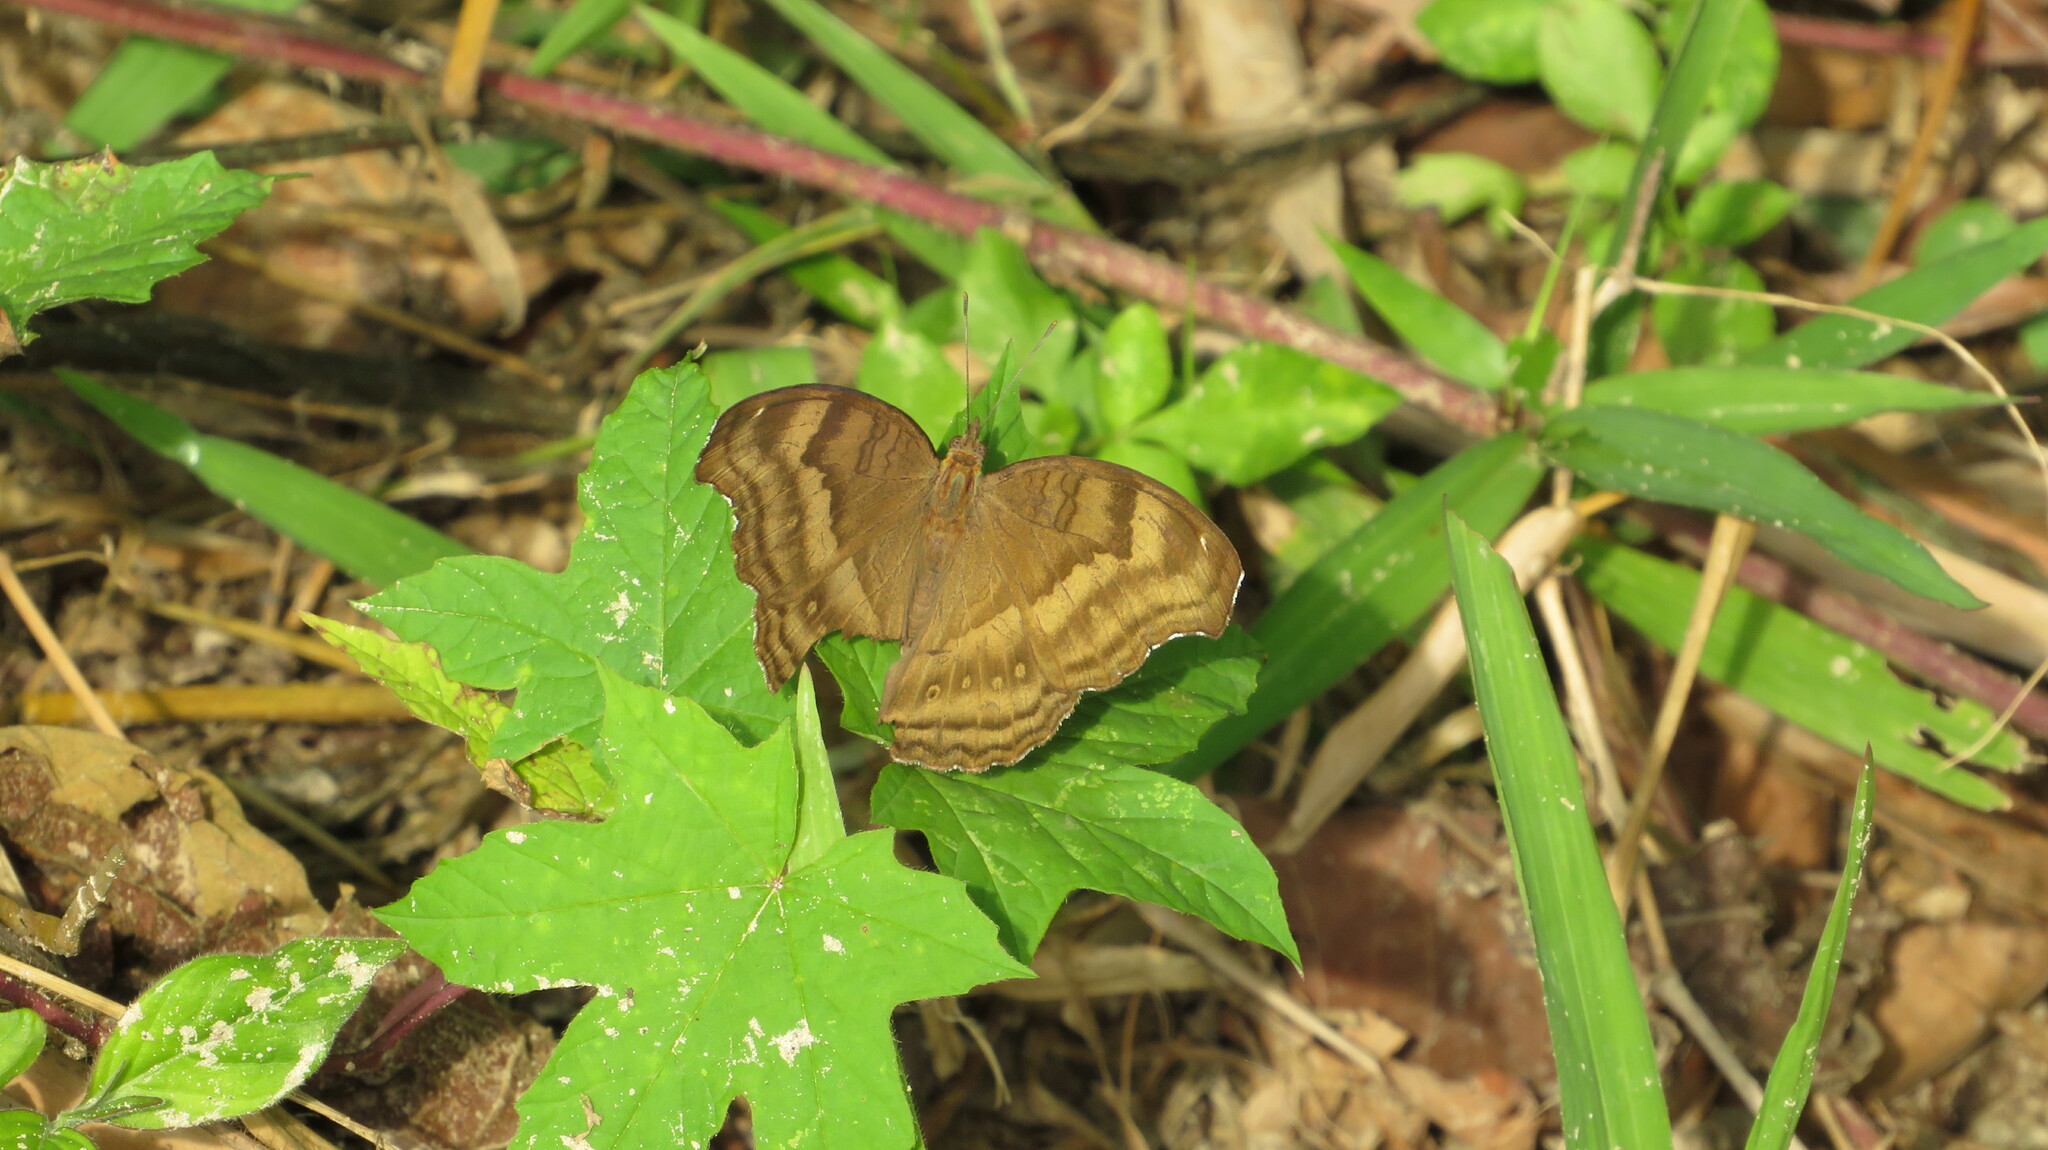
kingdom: Animalia
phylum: Arthropoda
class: Insecta
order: Lepidoptera
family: Nymphalidae
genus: Junonia
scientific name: Junonia iphita
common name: Chocolate pansy
